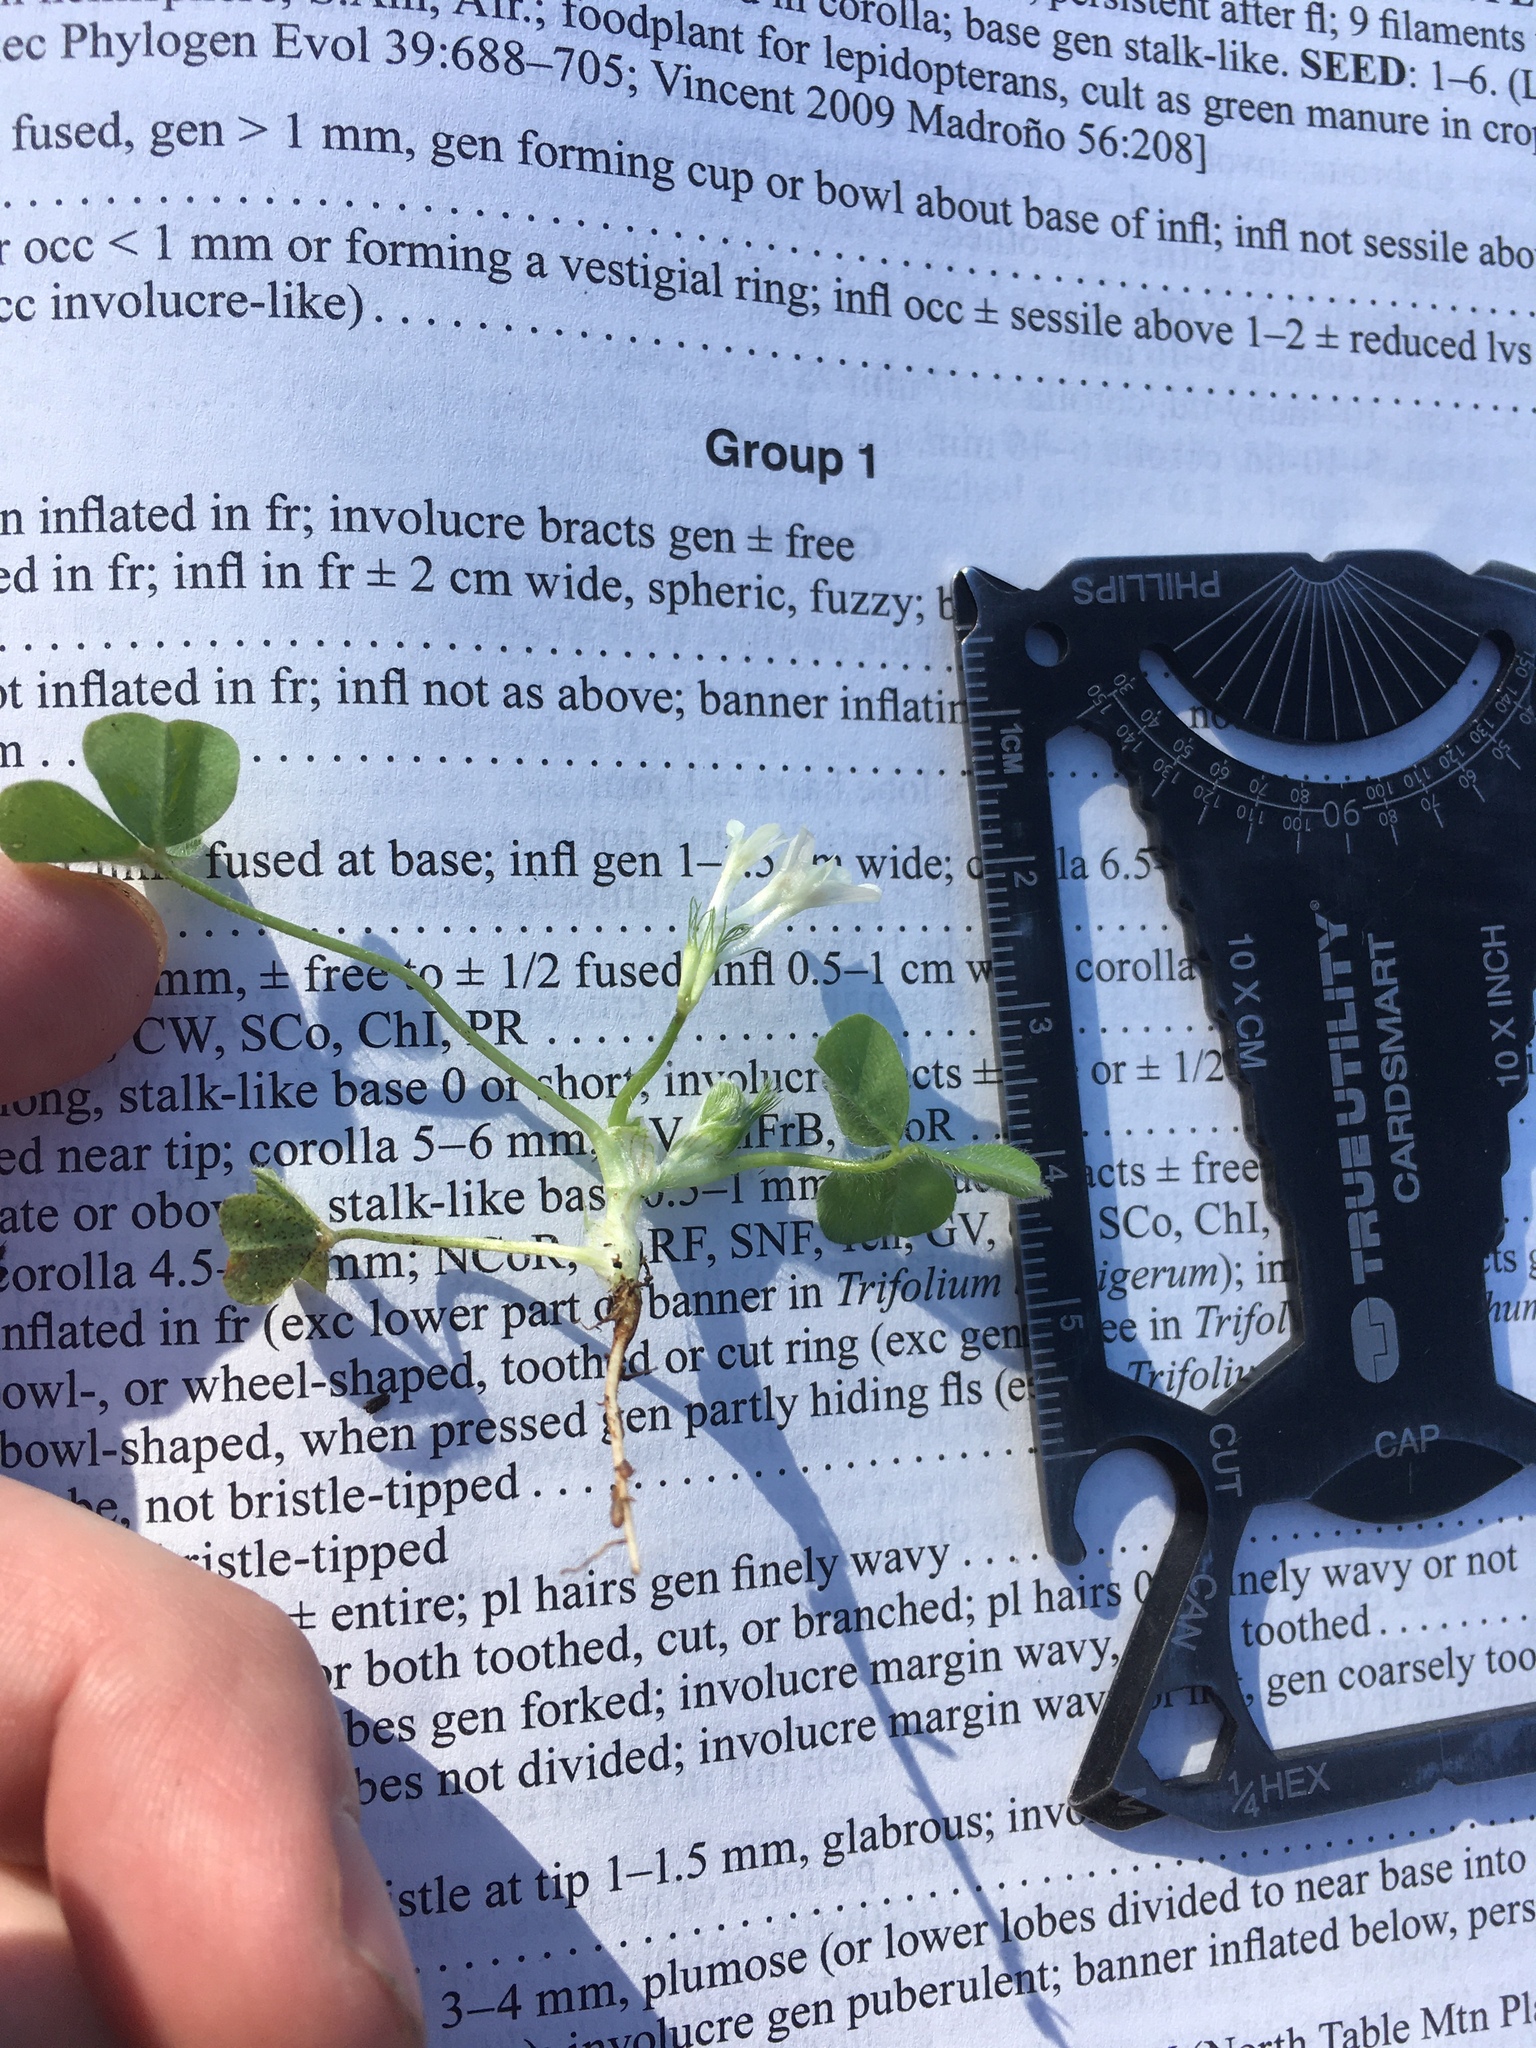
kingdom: Plantae
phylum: Tracheophyta
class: Magnoliopsida
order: Fabales
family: Fabaceae
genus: Trifolium
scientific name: Trifolium subterraneum
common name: Subterranean clover
